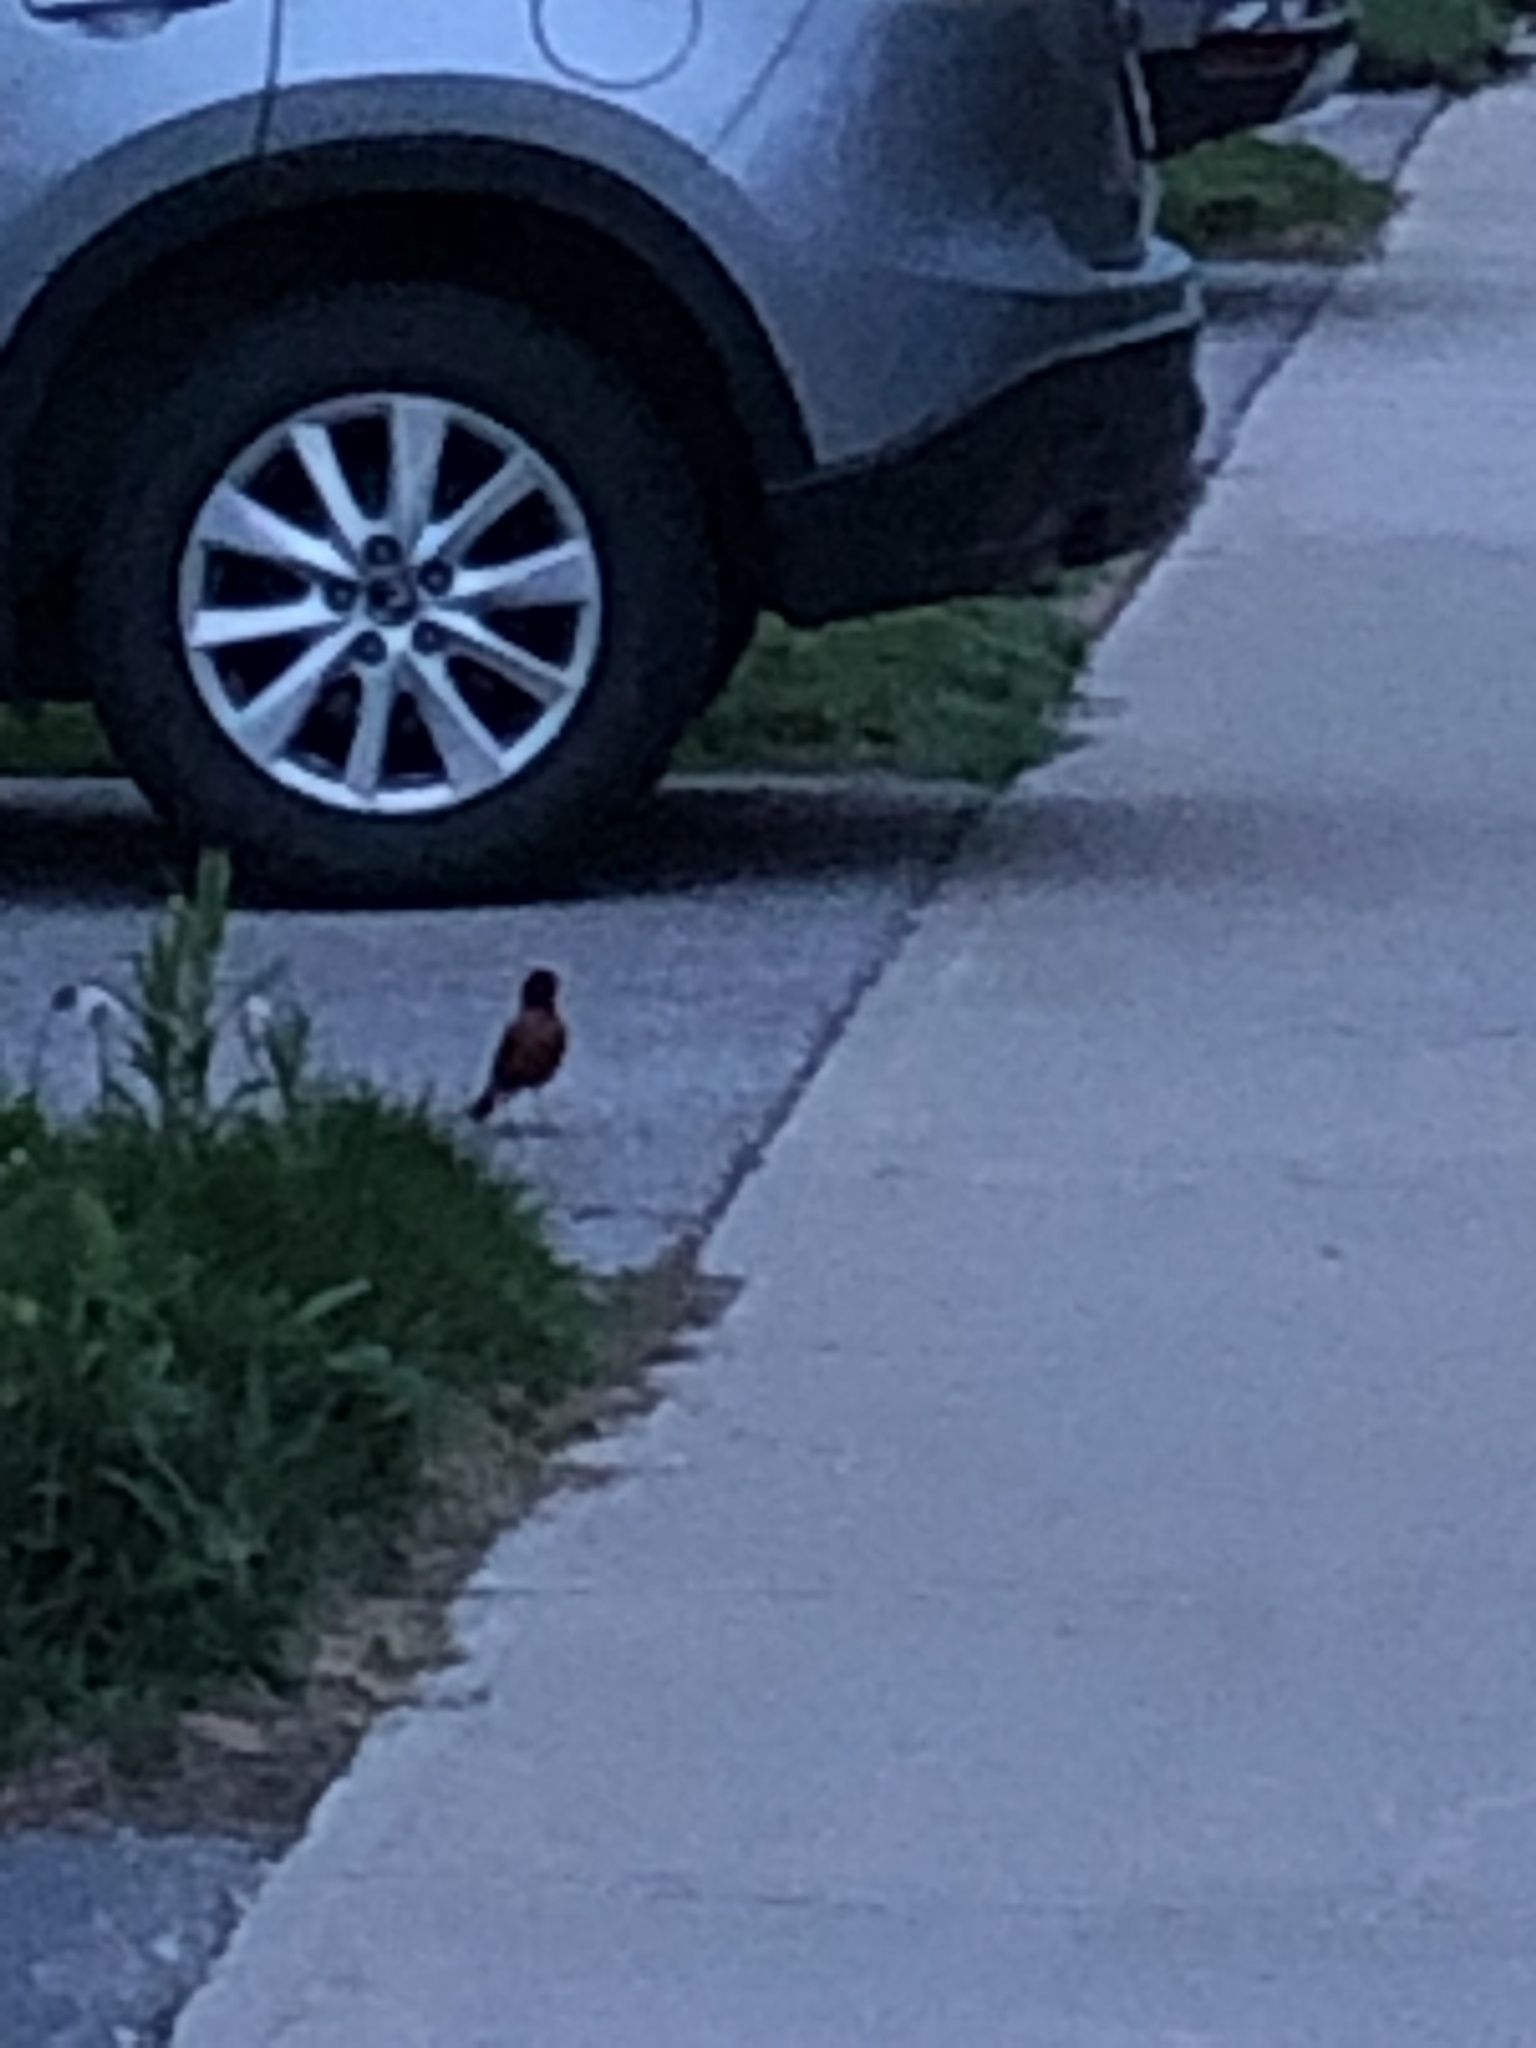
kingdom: Animalia
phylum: Chordata
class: Aves
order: Passeriformes
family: Turdidae
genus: Turdus
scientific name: Turdus migratorius
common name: American robin
